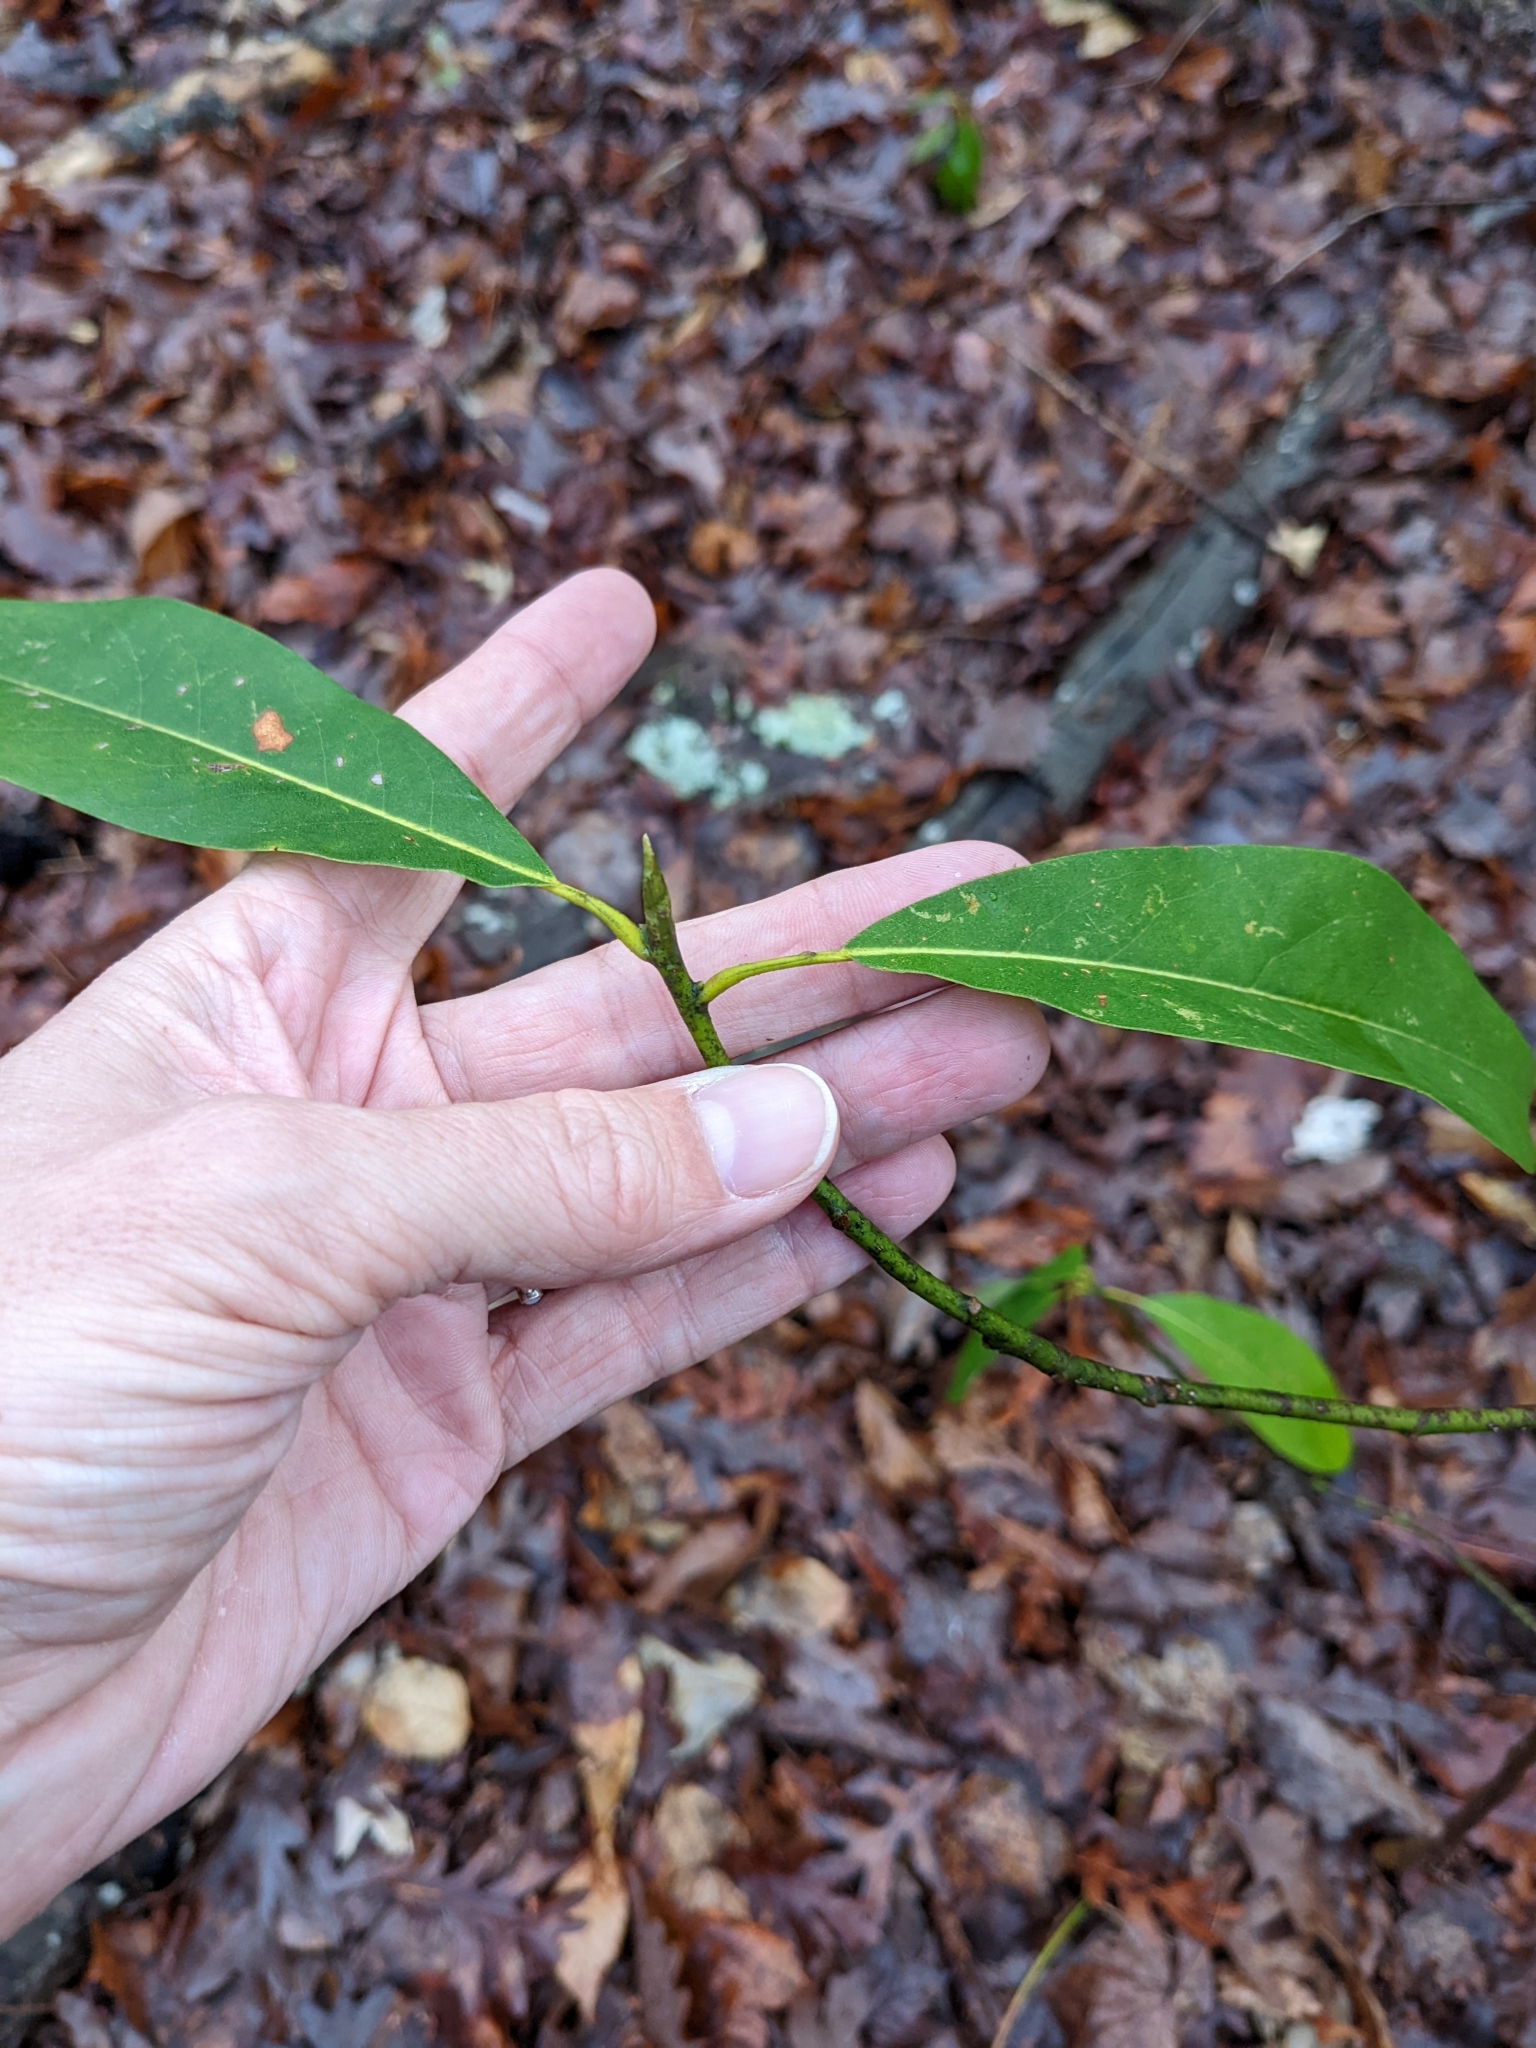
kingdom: Plantae
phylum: Tracheophyta
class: Magnoliopsida
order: Magnoliales
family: Magnoliaceae
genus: Magnolia
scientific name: Magnolia virginiana
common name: Swamp bay
